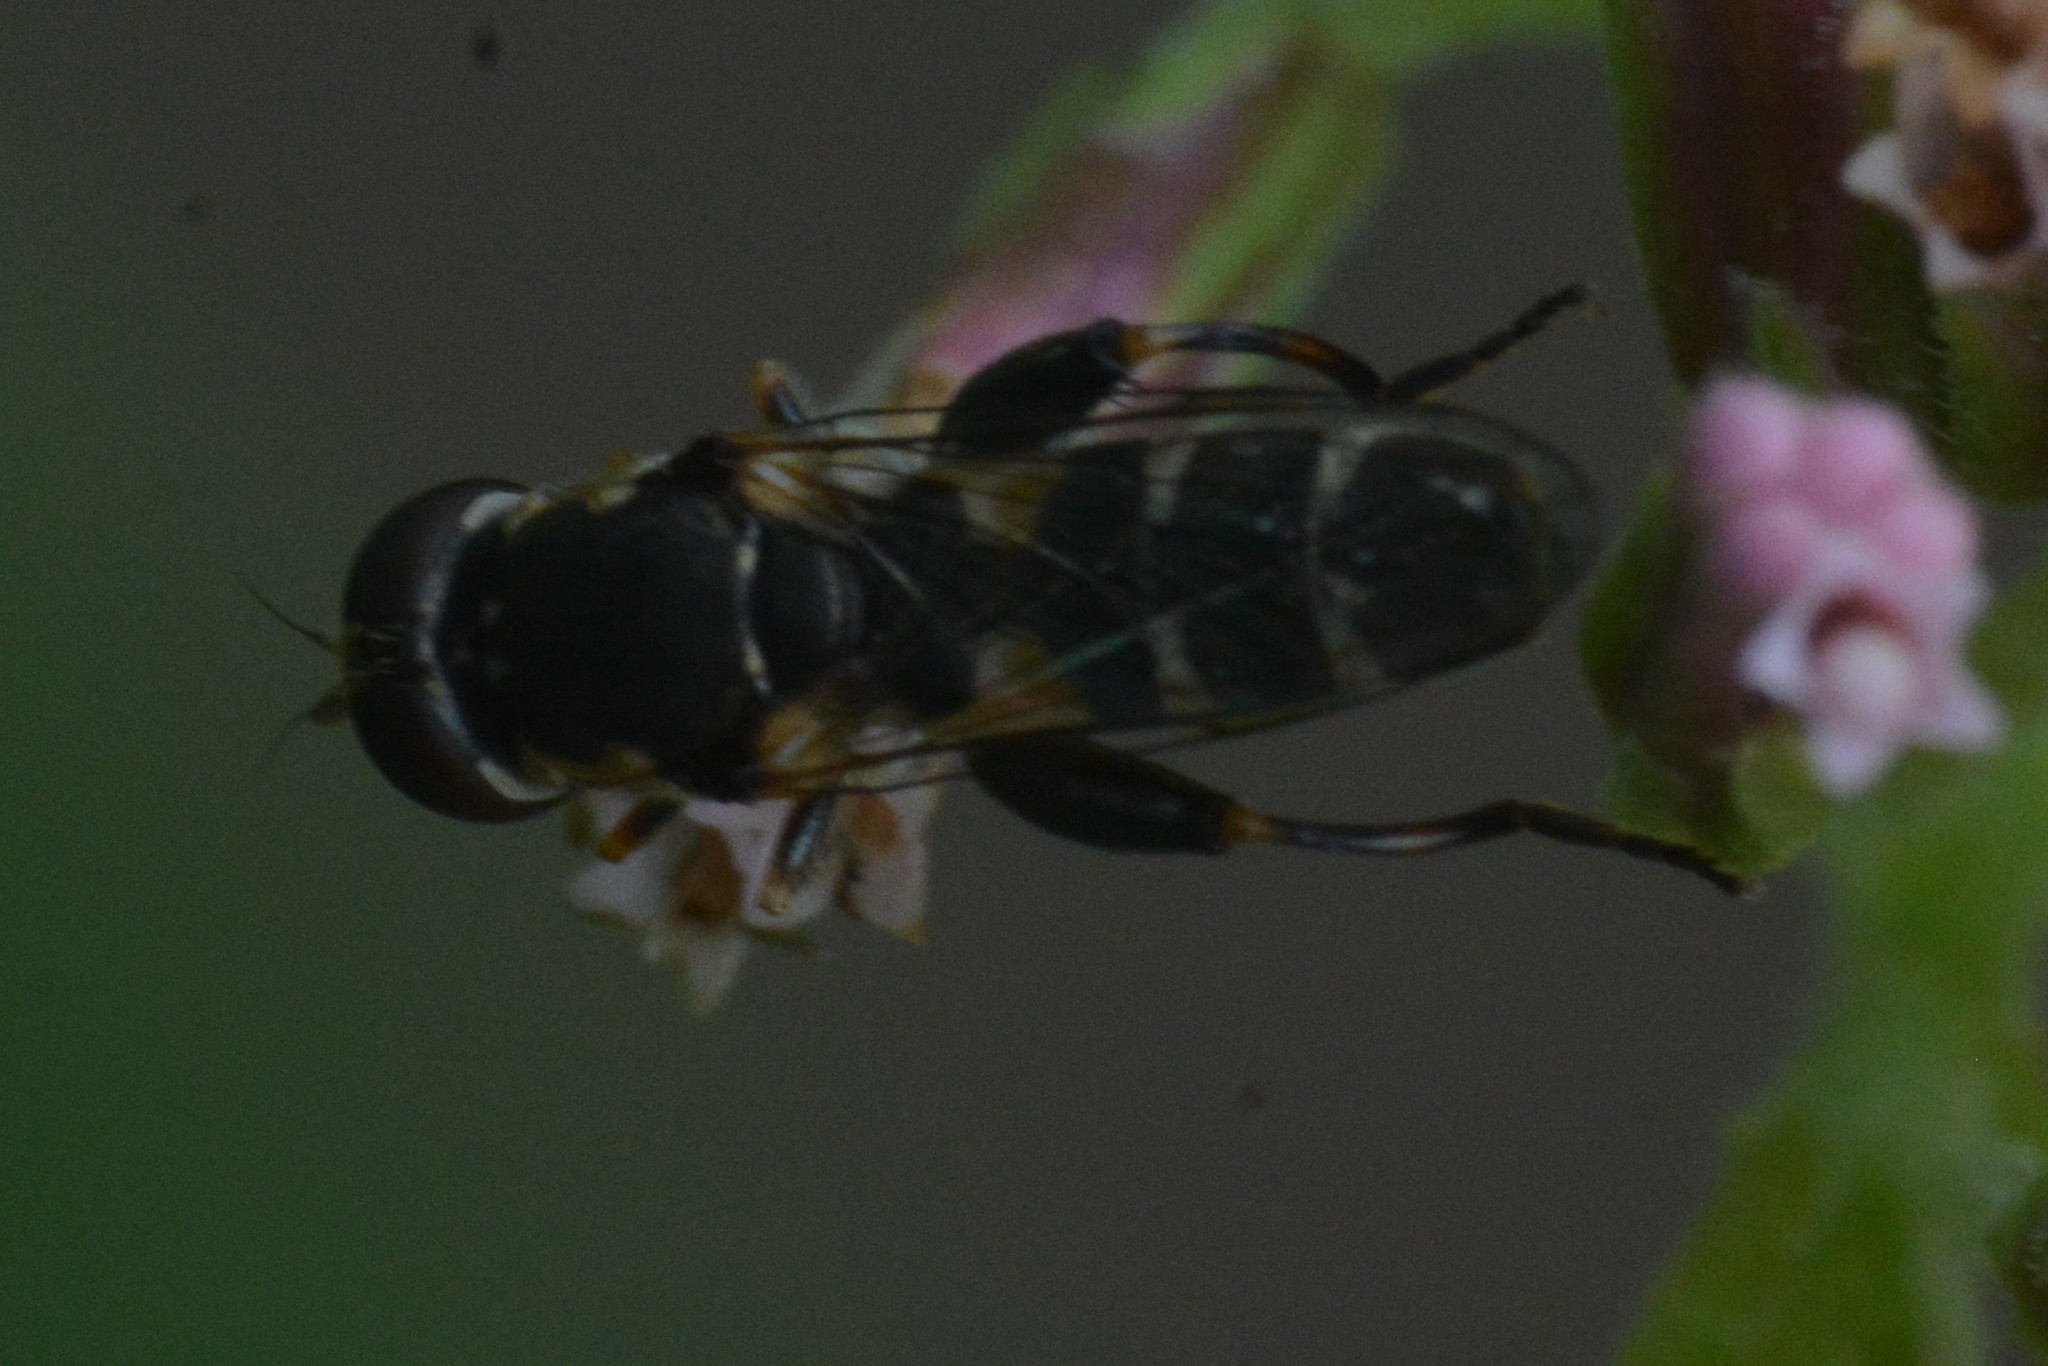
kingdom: Animalia
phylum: Arthropoda
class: Insecta
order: Diptera
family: Syrphidae
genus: Syritta
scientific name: Syritta pipiens
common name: Hover fly
